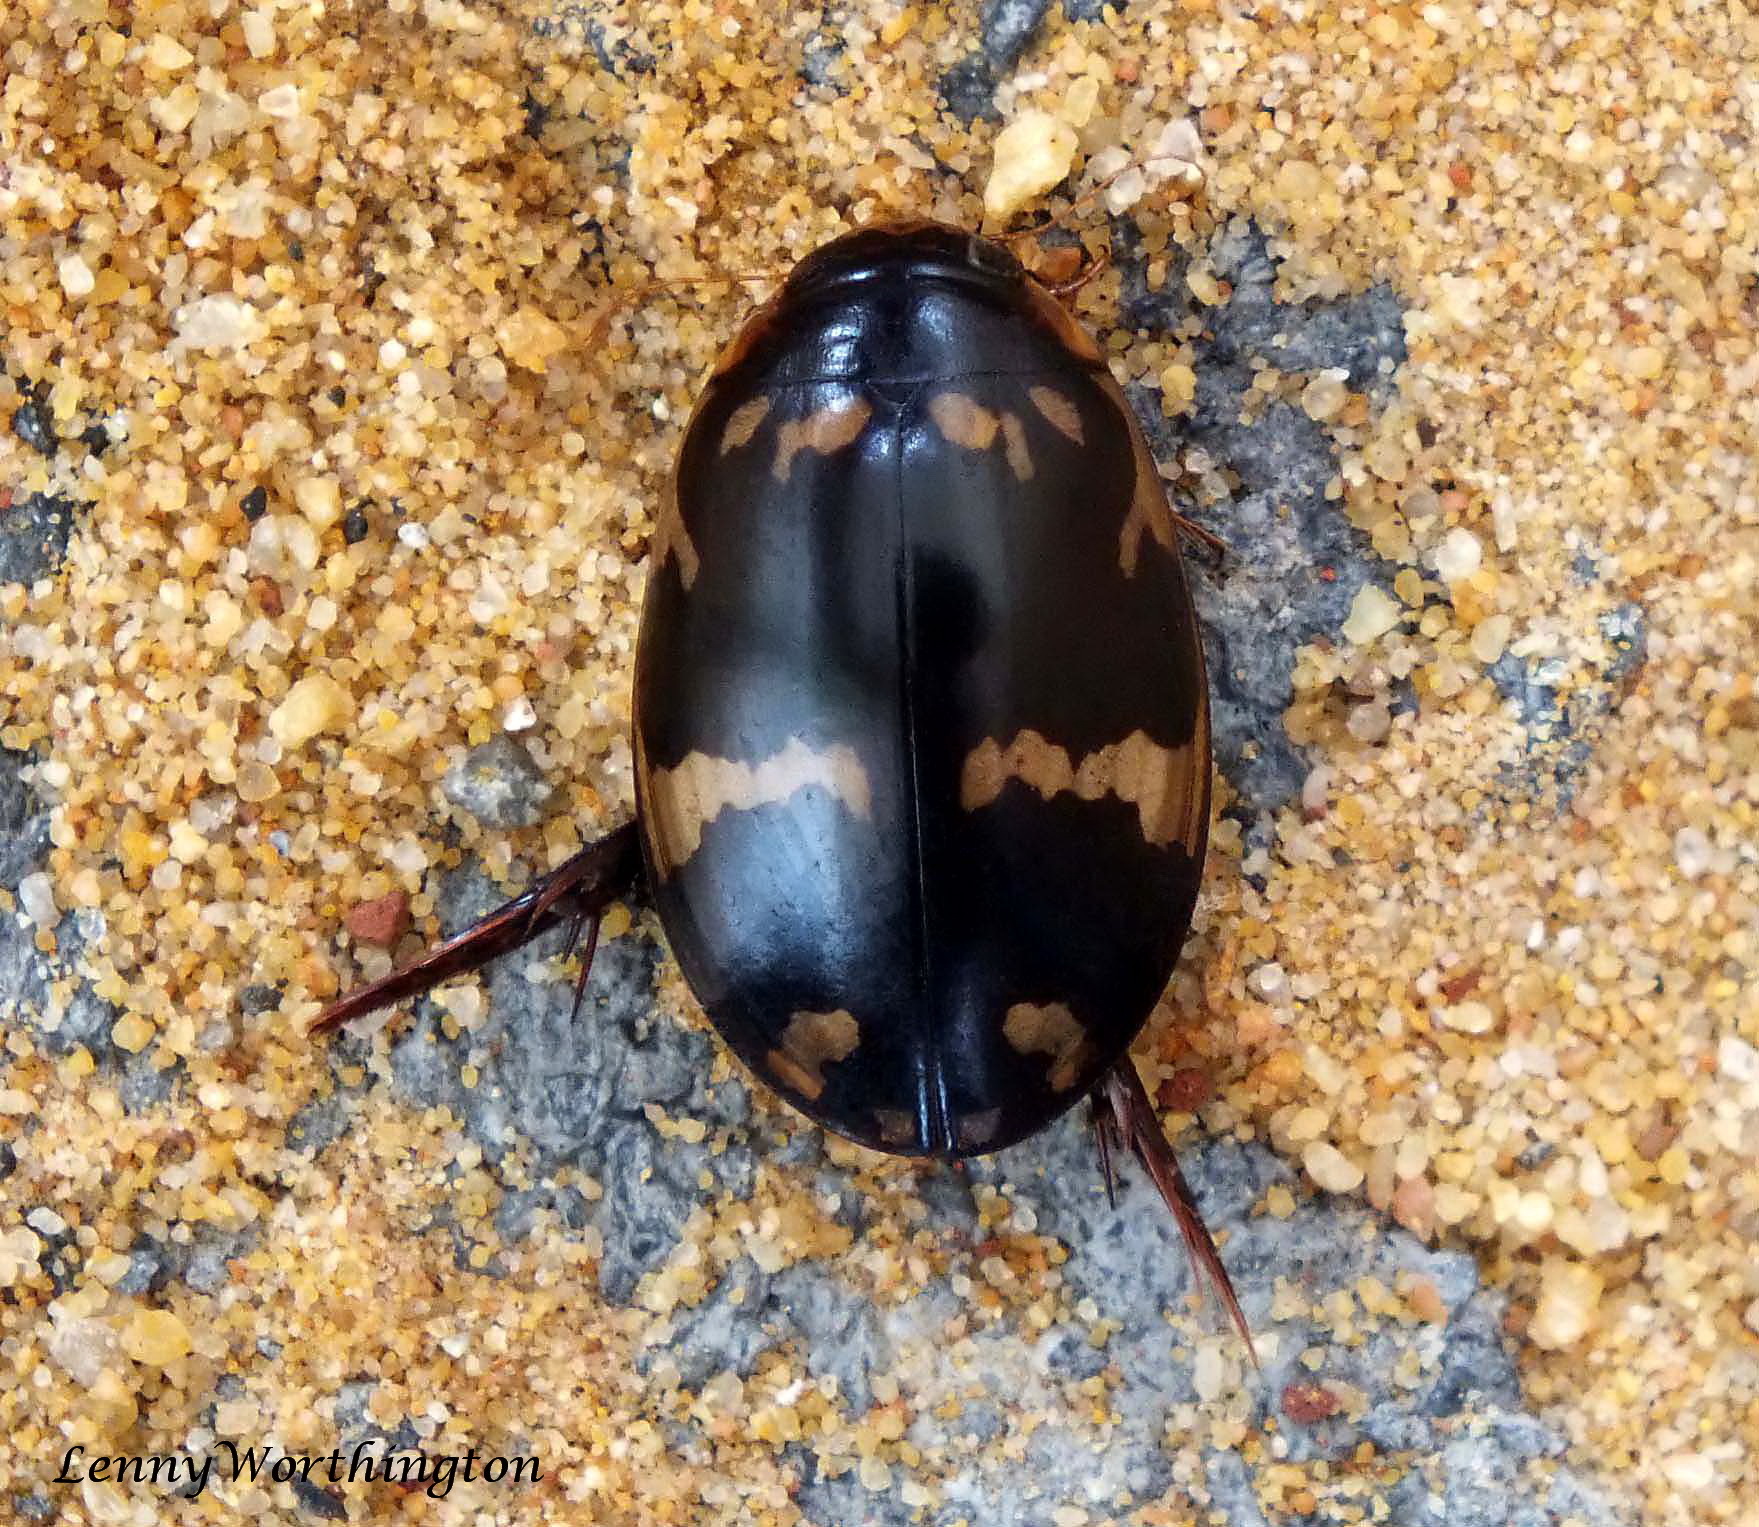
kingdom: Animalia
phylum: Arthropoda
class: Insecta
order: Coleoptera
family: Dytiscidae
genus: Sandracottus
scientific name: Sandracottus maculatus
